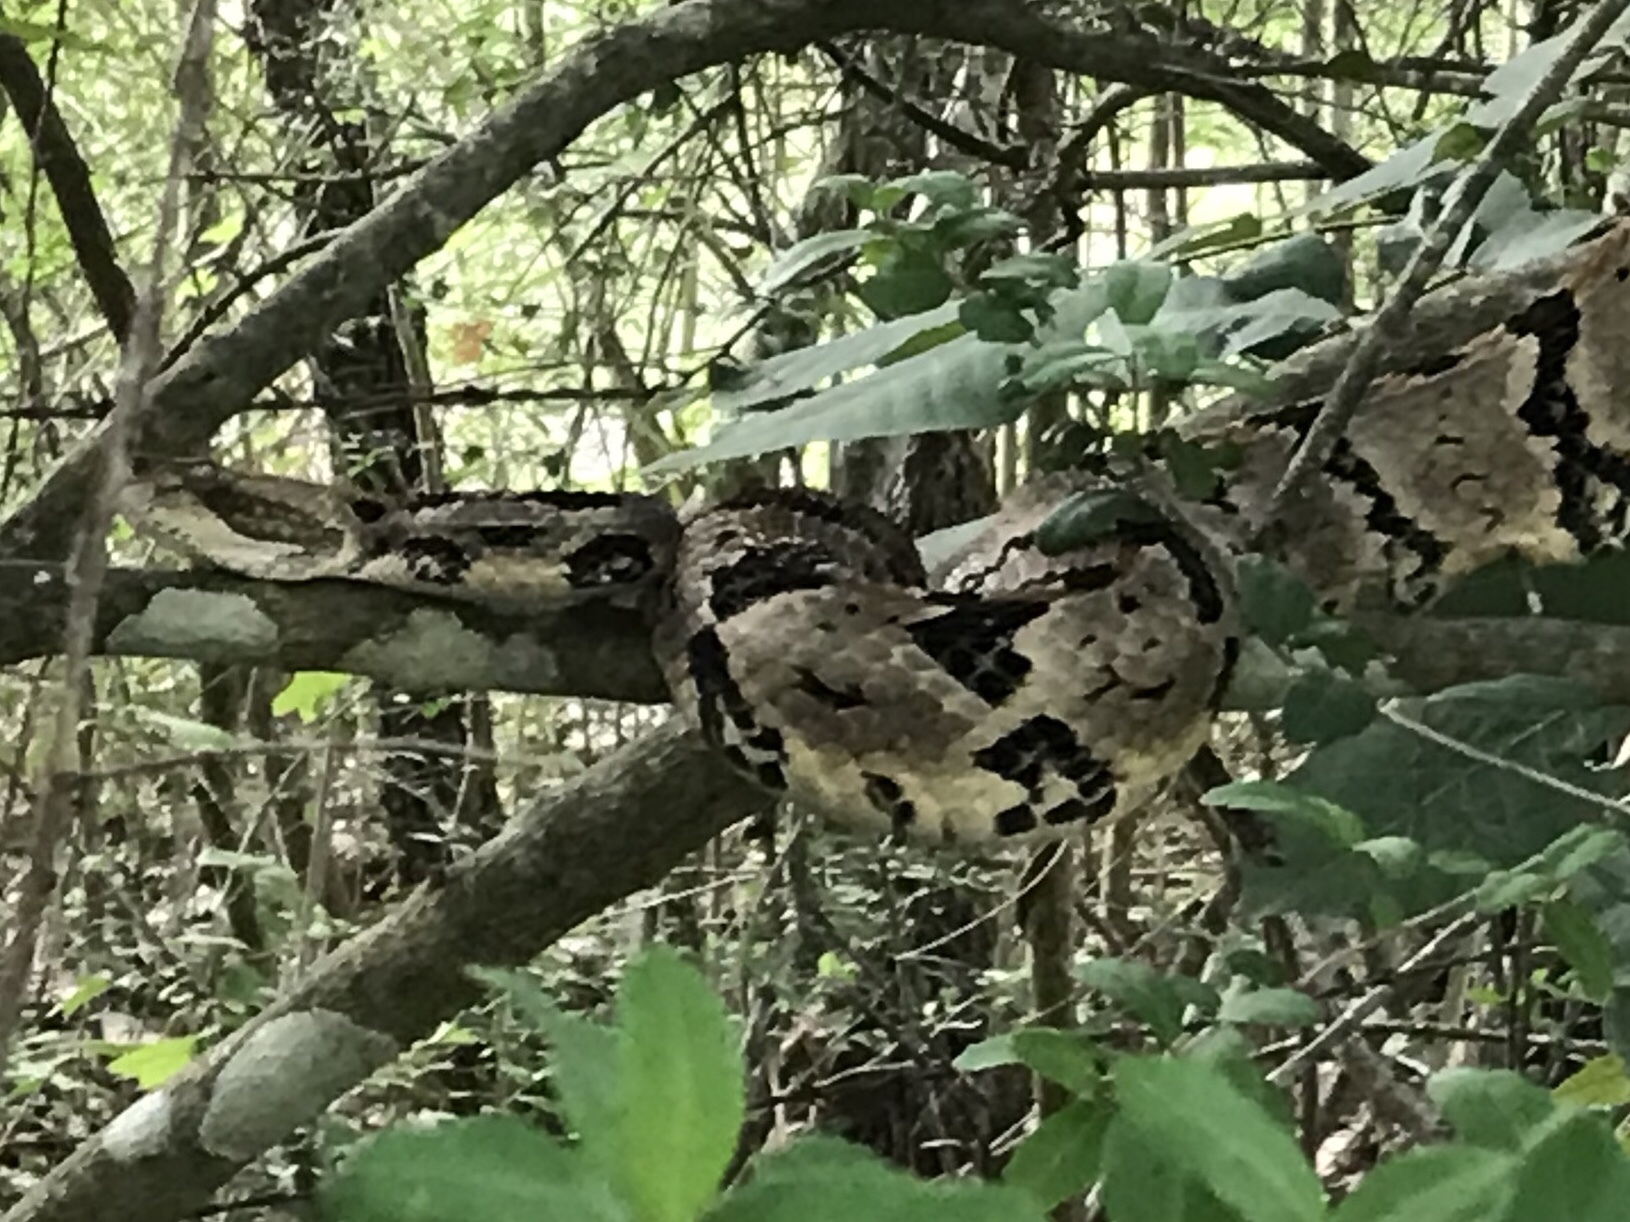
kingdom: Animalia
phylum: Chordata
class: Squamata
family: Viperidae
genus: Crotalus
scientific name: Crotalus horridus
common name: Timber rattlesnake
